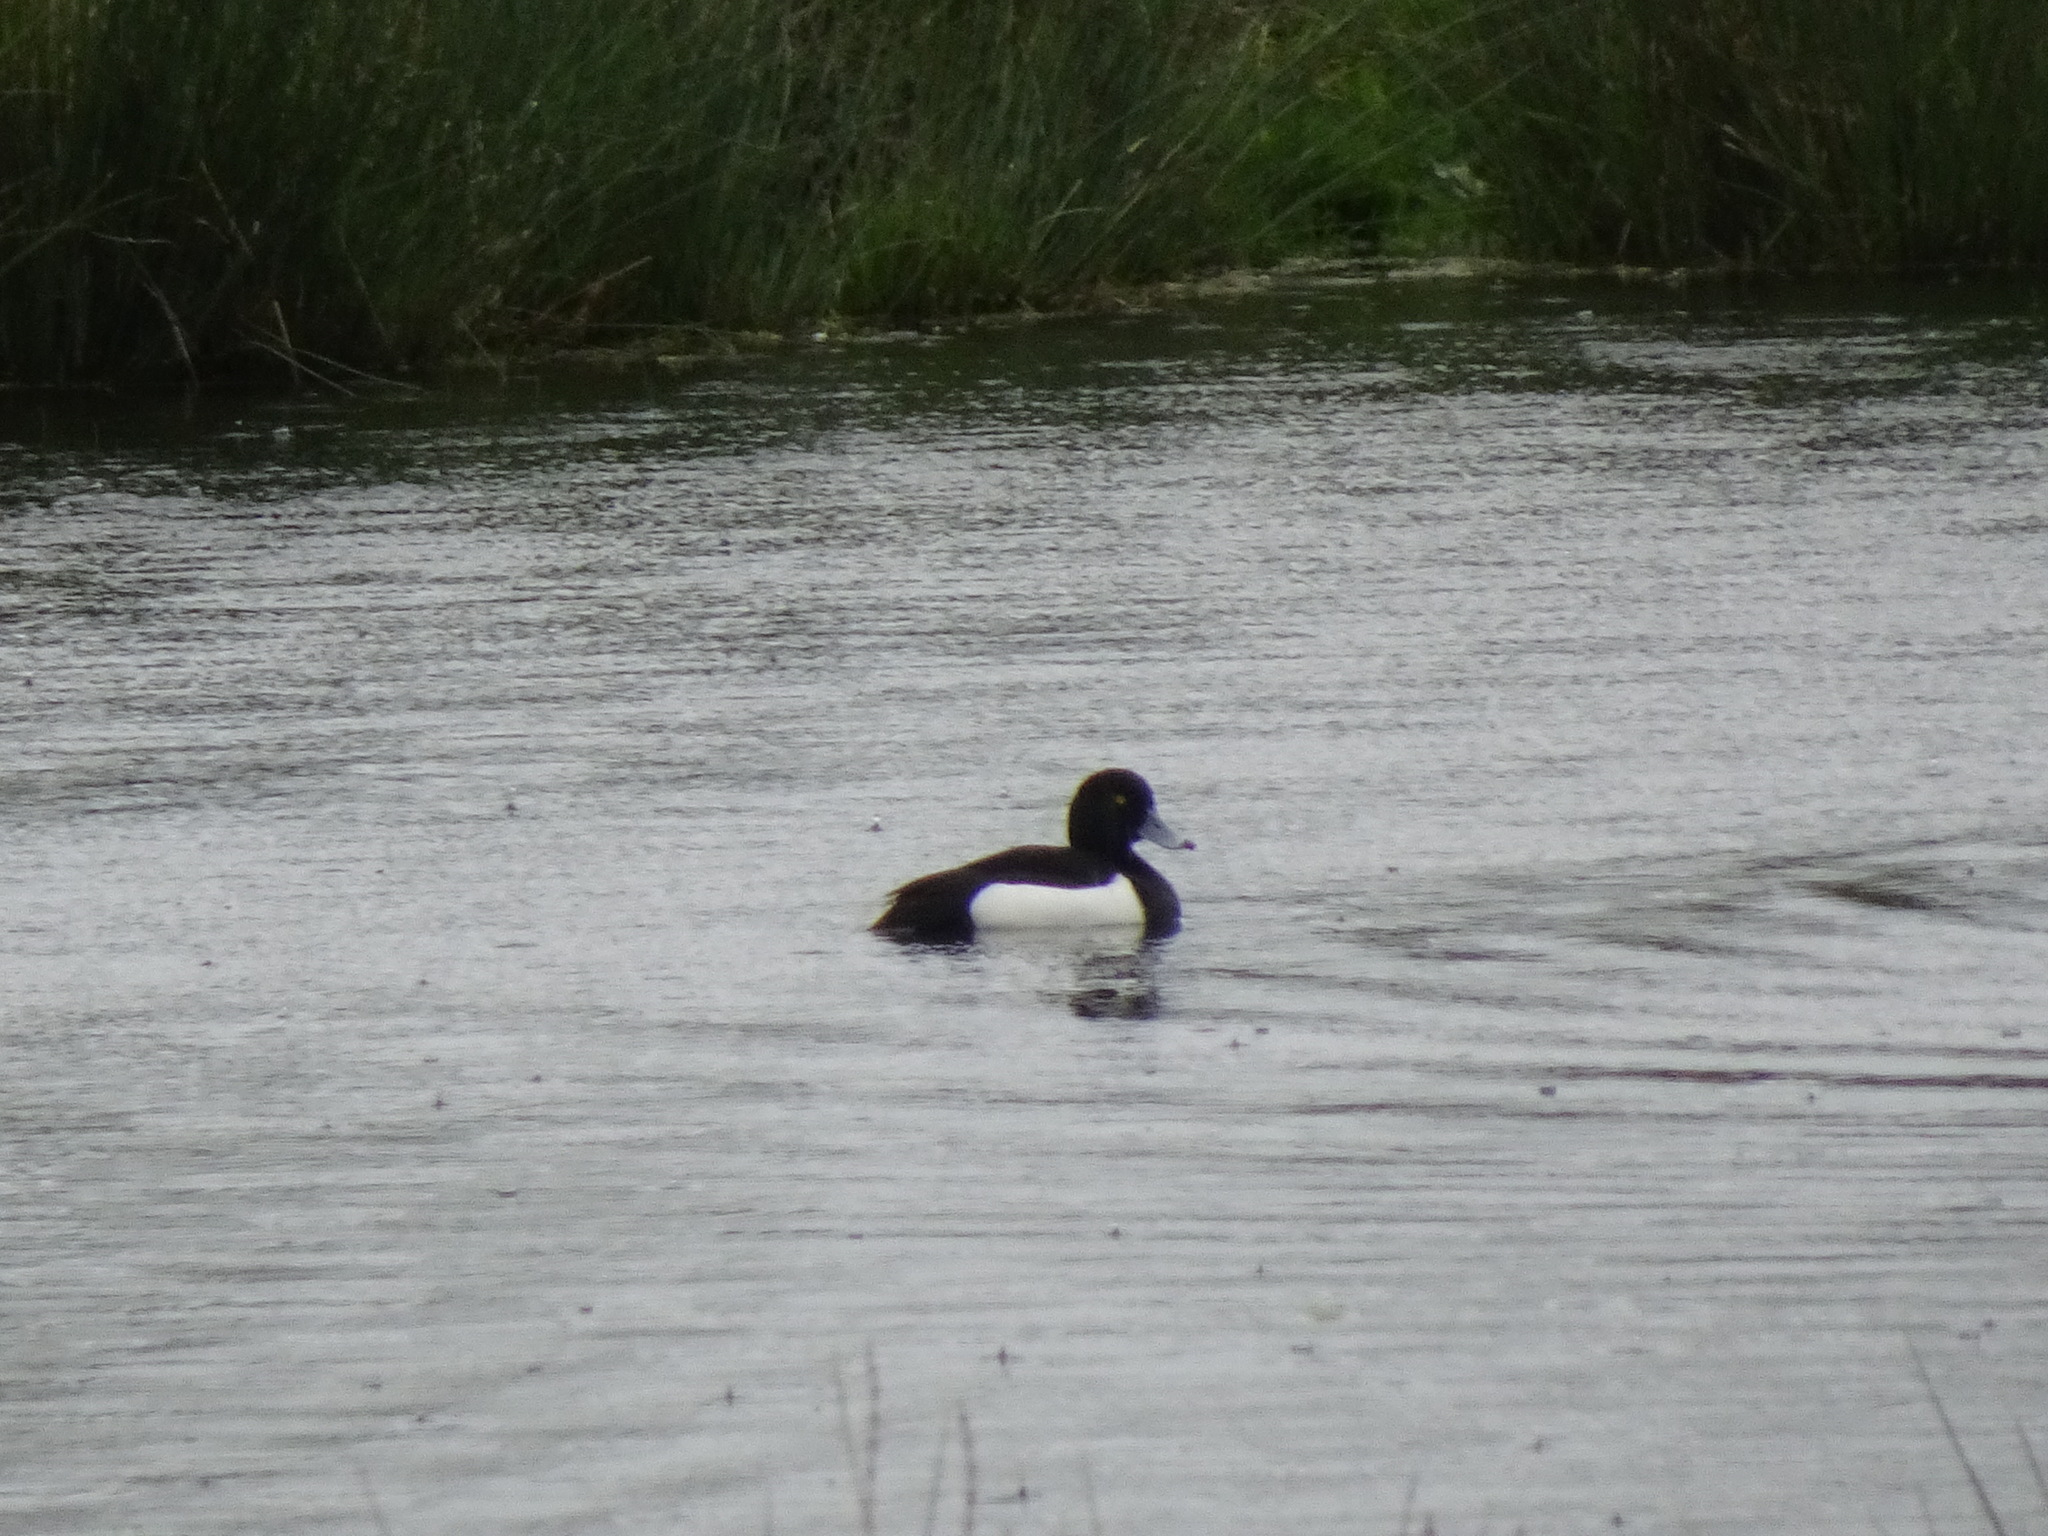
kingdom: Animalia
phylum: Chordata
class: Aves
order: Anseriformes
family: Anatidae
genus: Aythya
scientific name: Aythya fuligula
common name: Tufted duck
